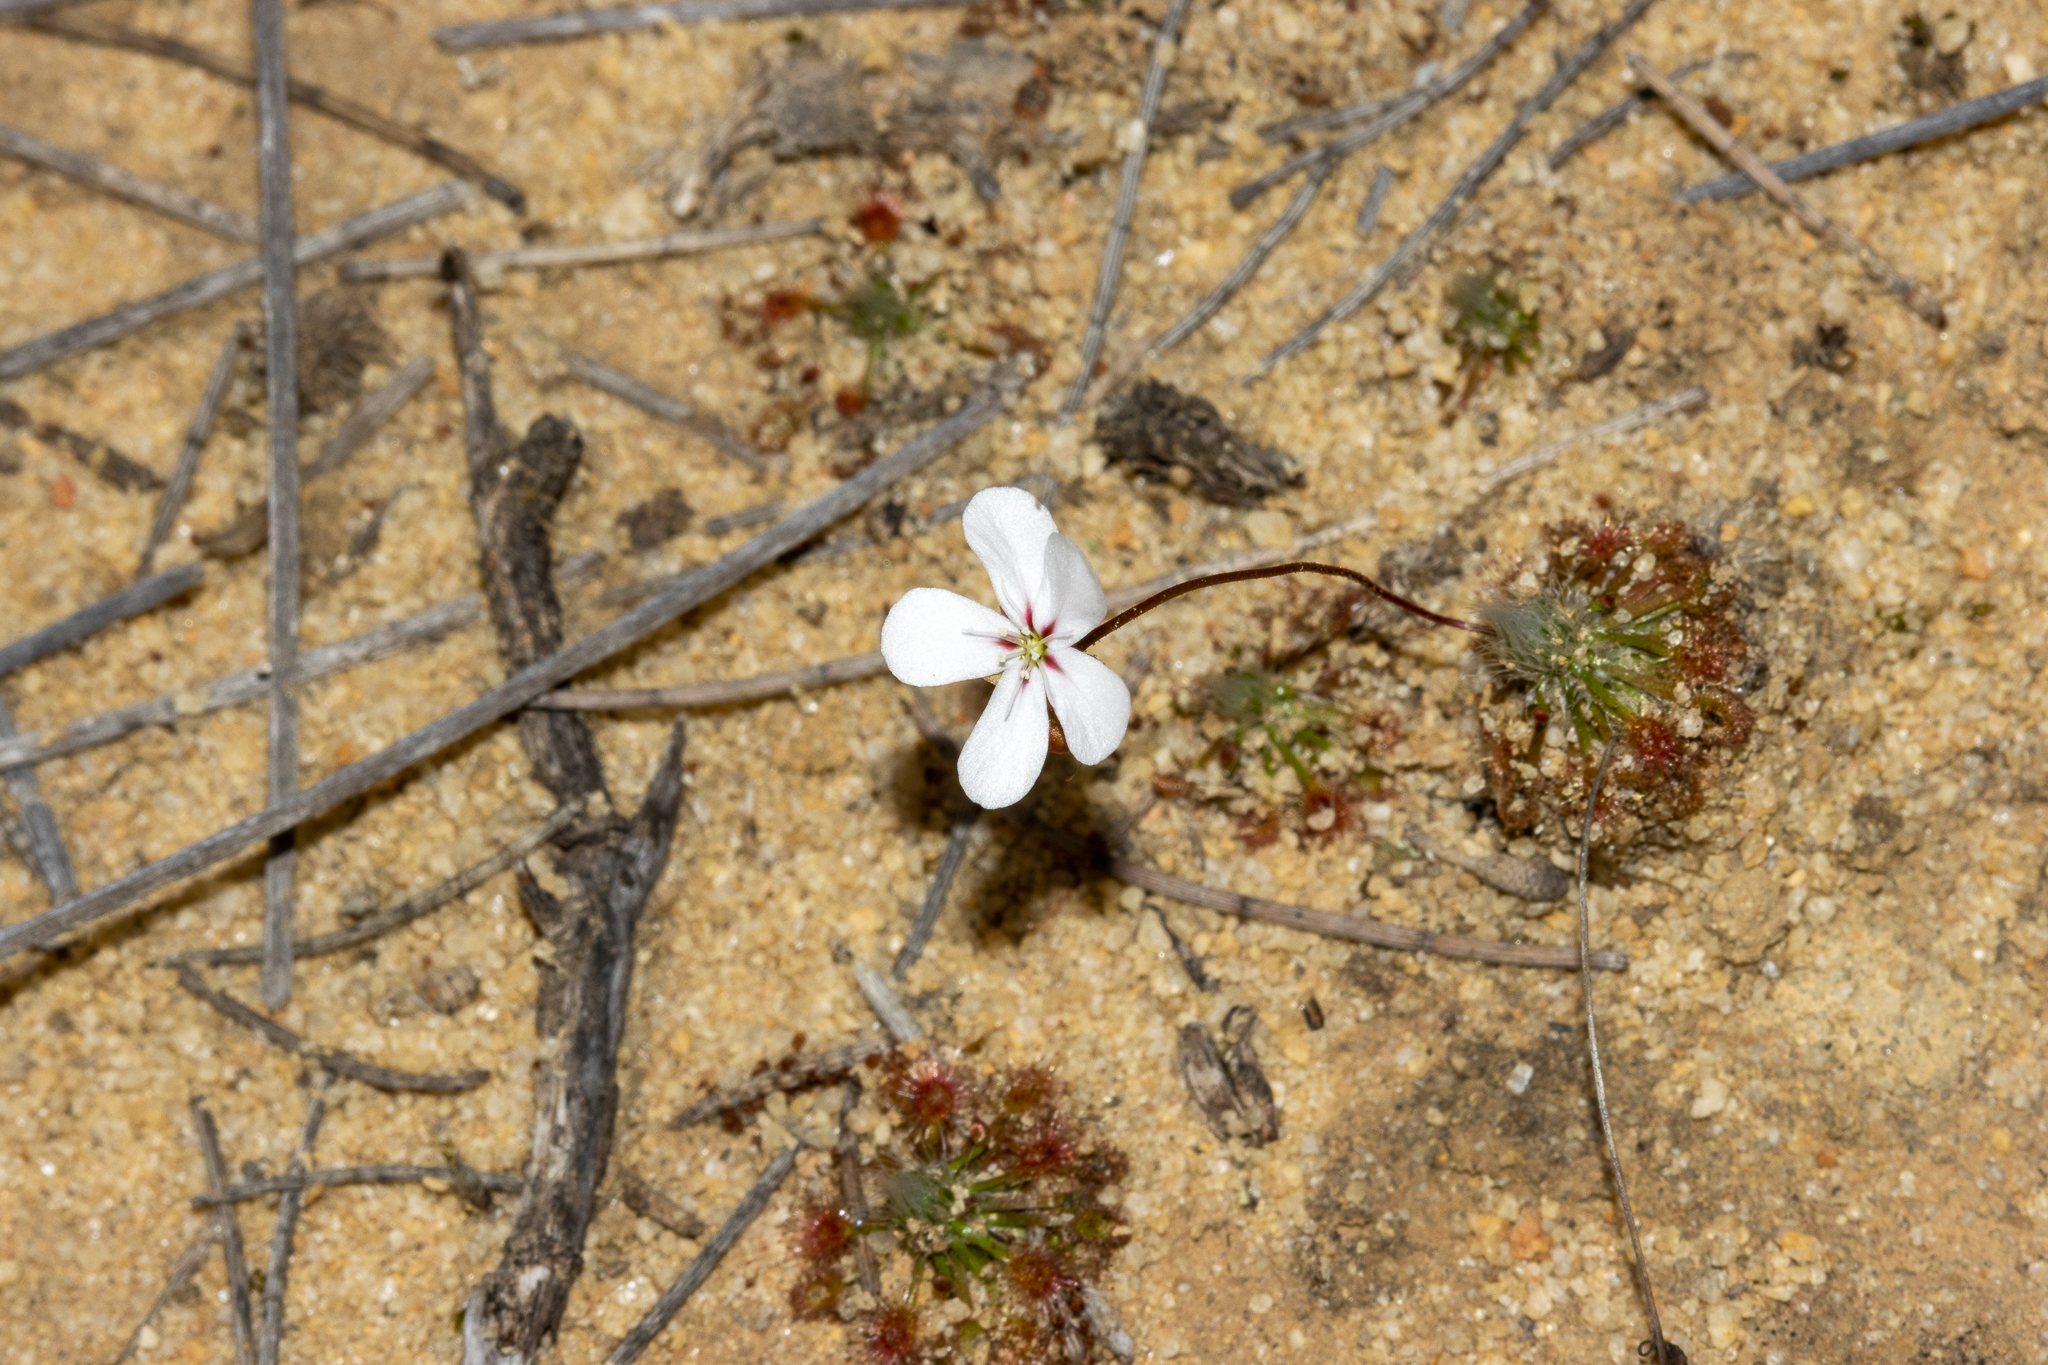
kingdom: Plantae
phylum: Tracheophyta
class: Magnoliopsida
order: Caryophyllales
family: Droseraceae
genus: Drosera
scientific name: Drosera spilos
